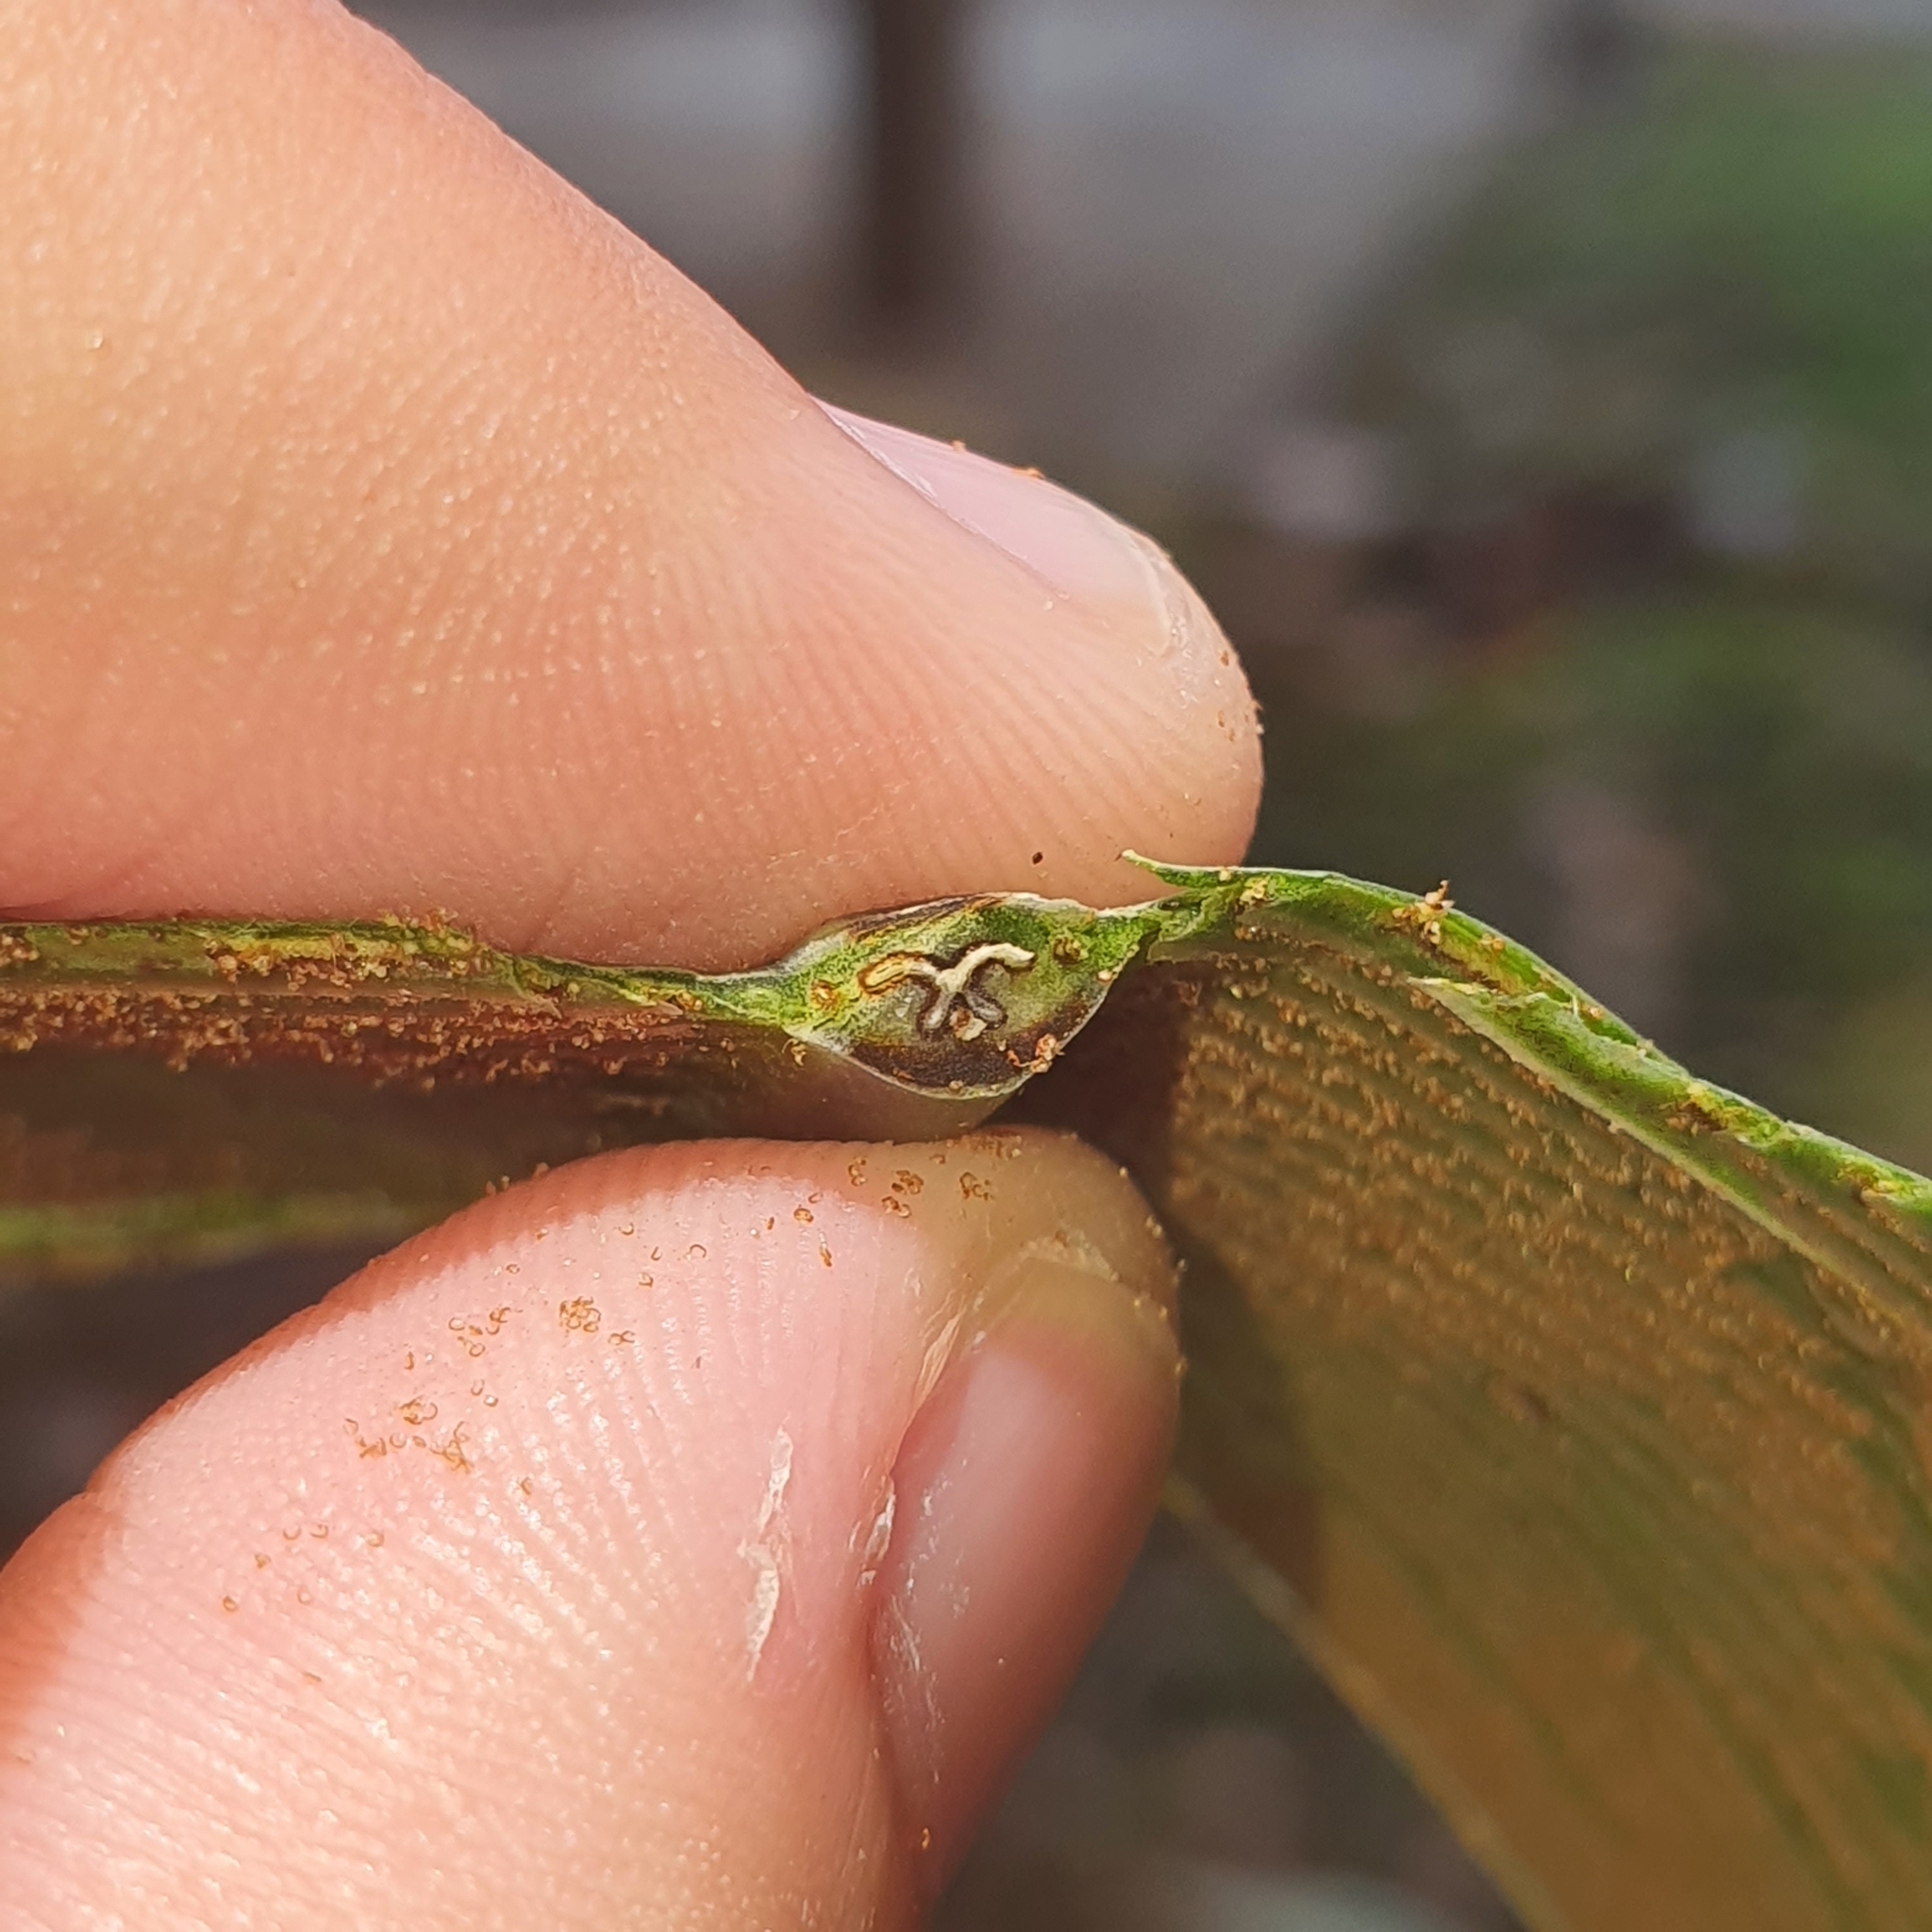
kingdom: Plantae
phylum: Tracheophyta
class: Polypodiopsida
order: Polypodiales
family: Aspleniaceae
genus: Asplenium
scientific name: Asplenium australasicum
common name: Bird's-nest fern
